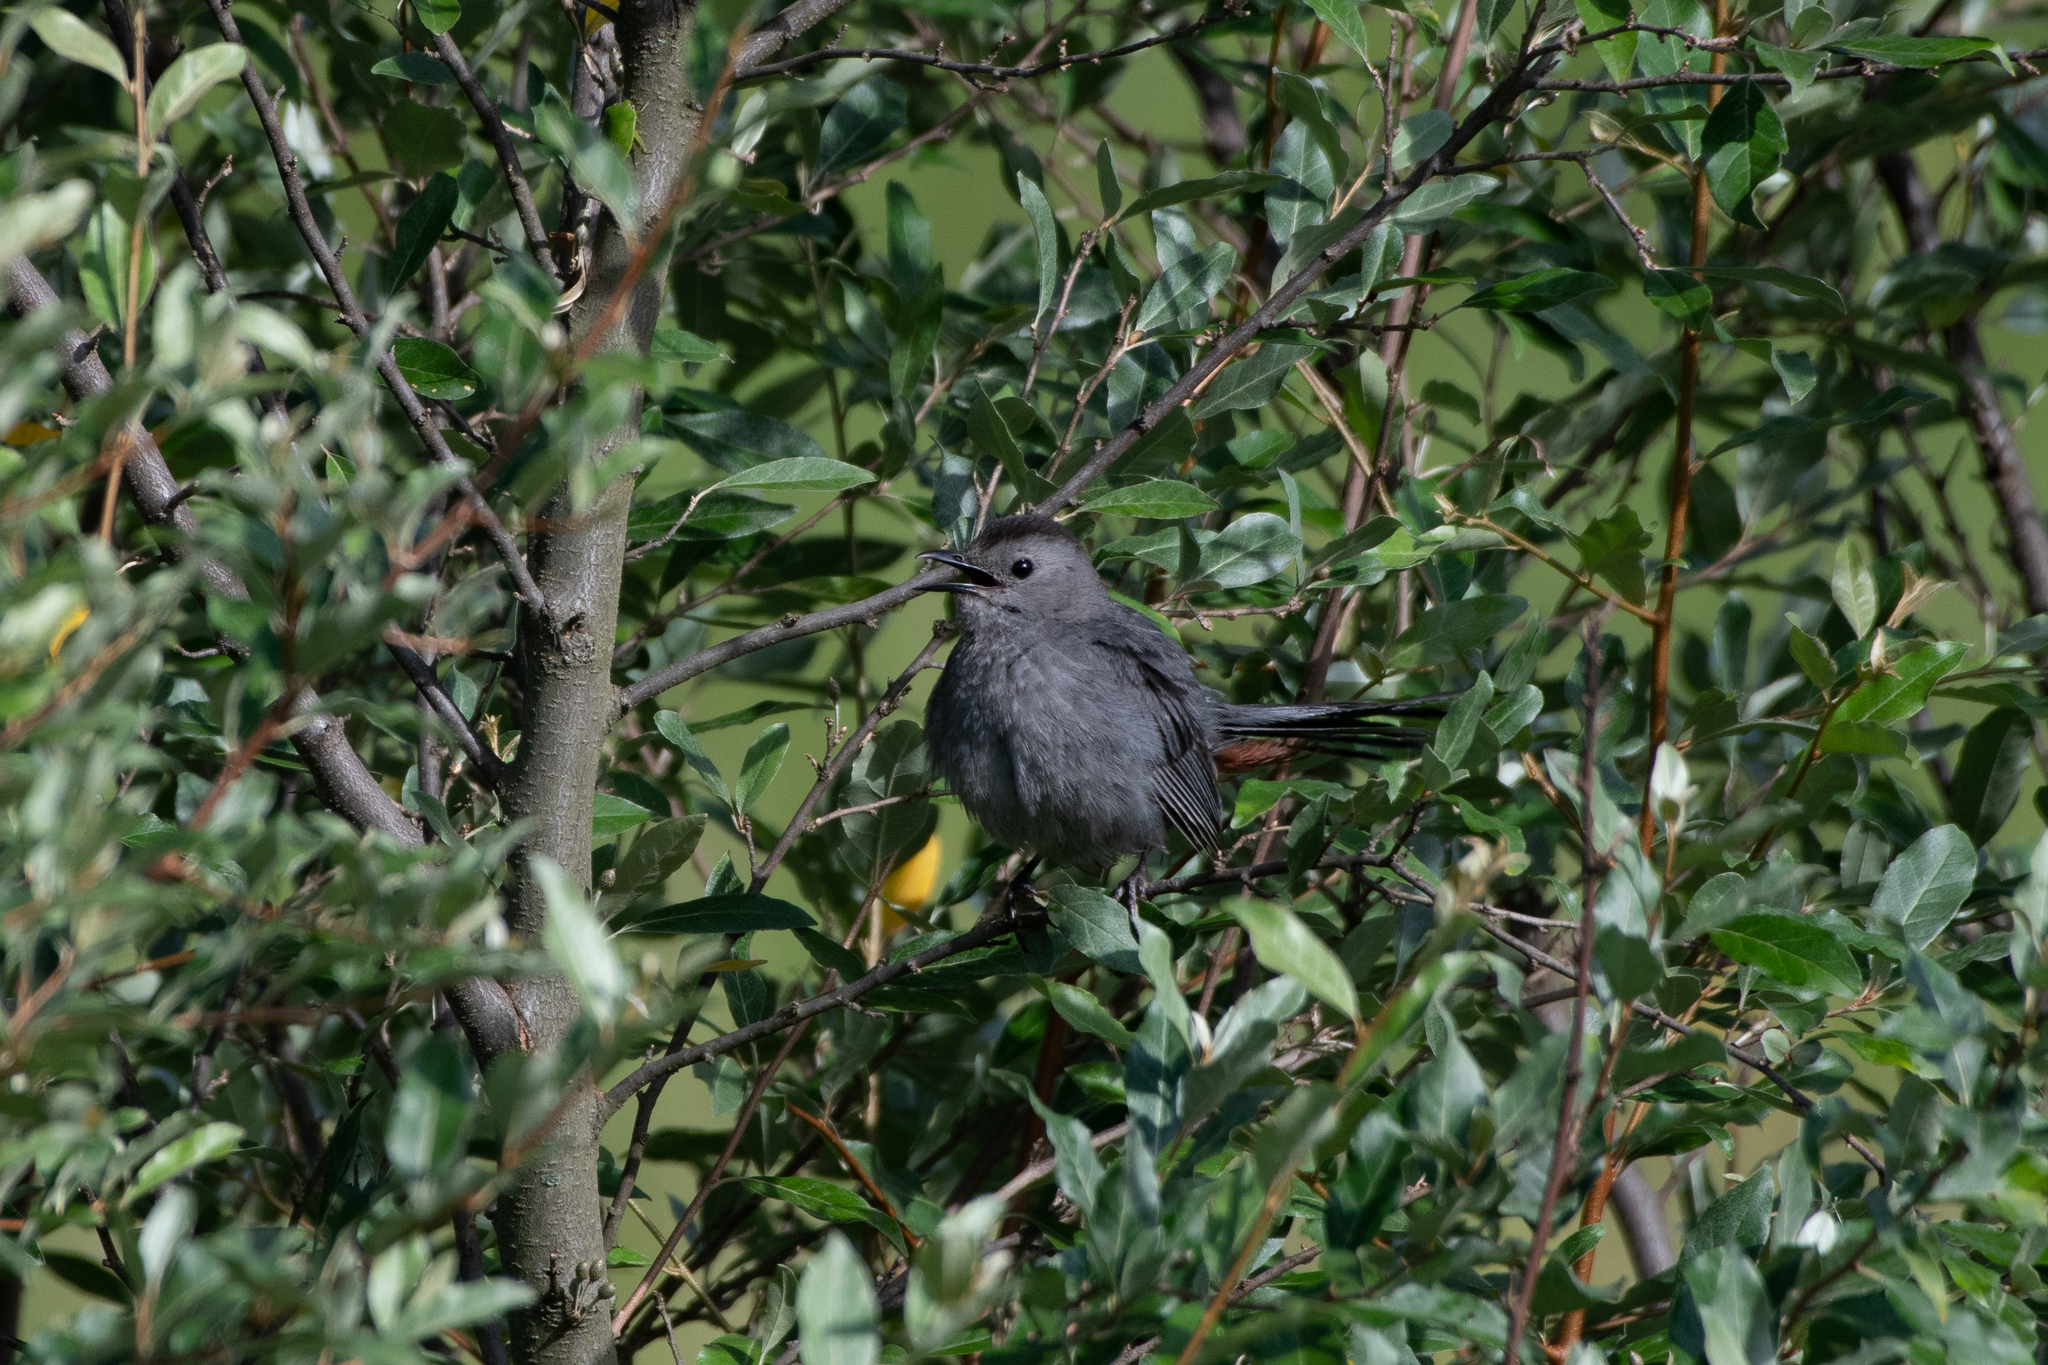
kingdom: Animalia
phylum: Chordata
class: Aves
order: Passeriformes
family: Mimidae
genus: Dumetella
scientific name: Dumetella carolinensis
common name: Gray catbird
